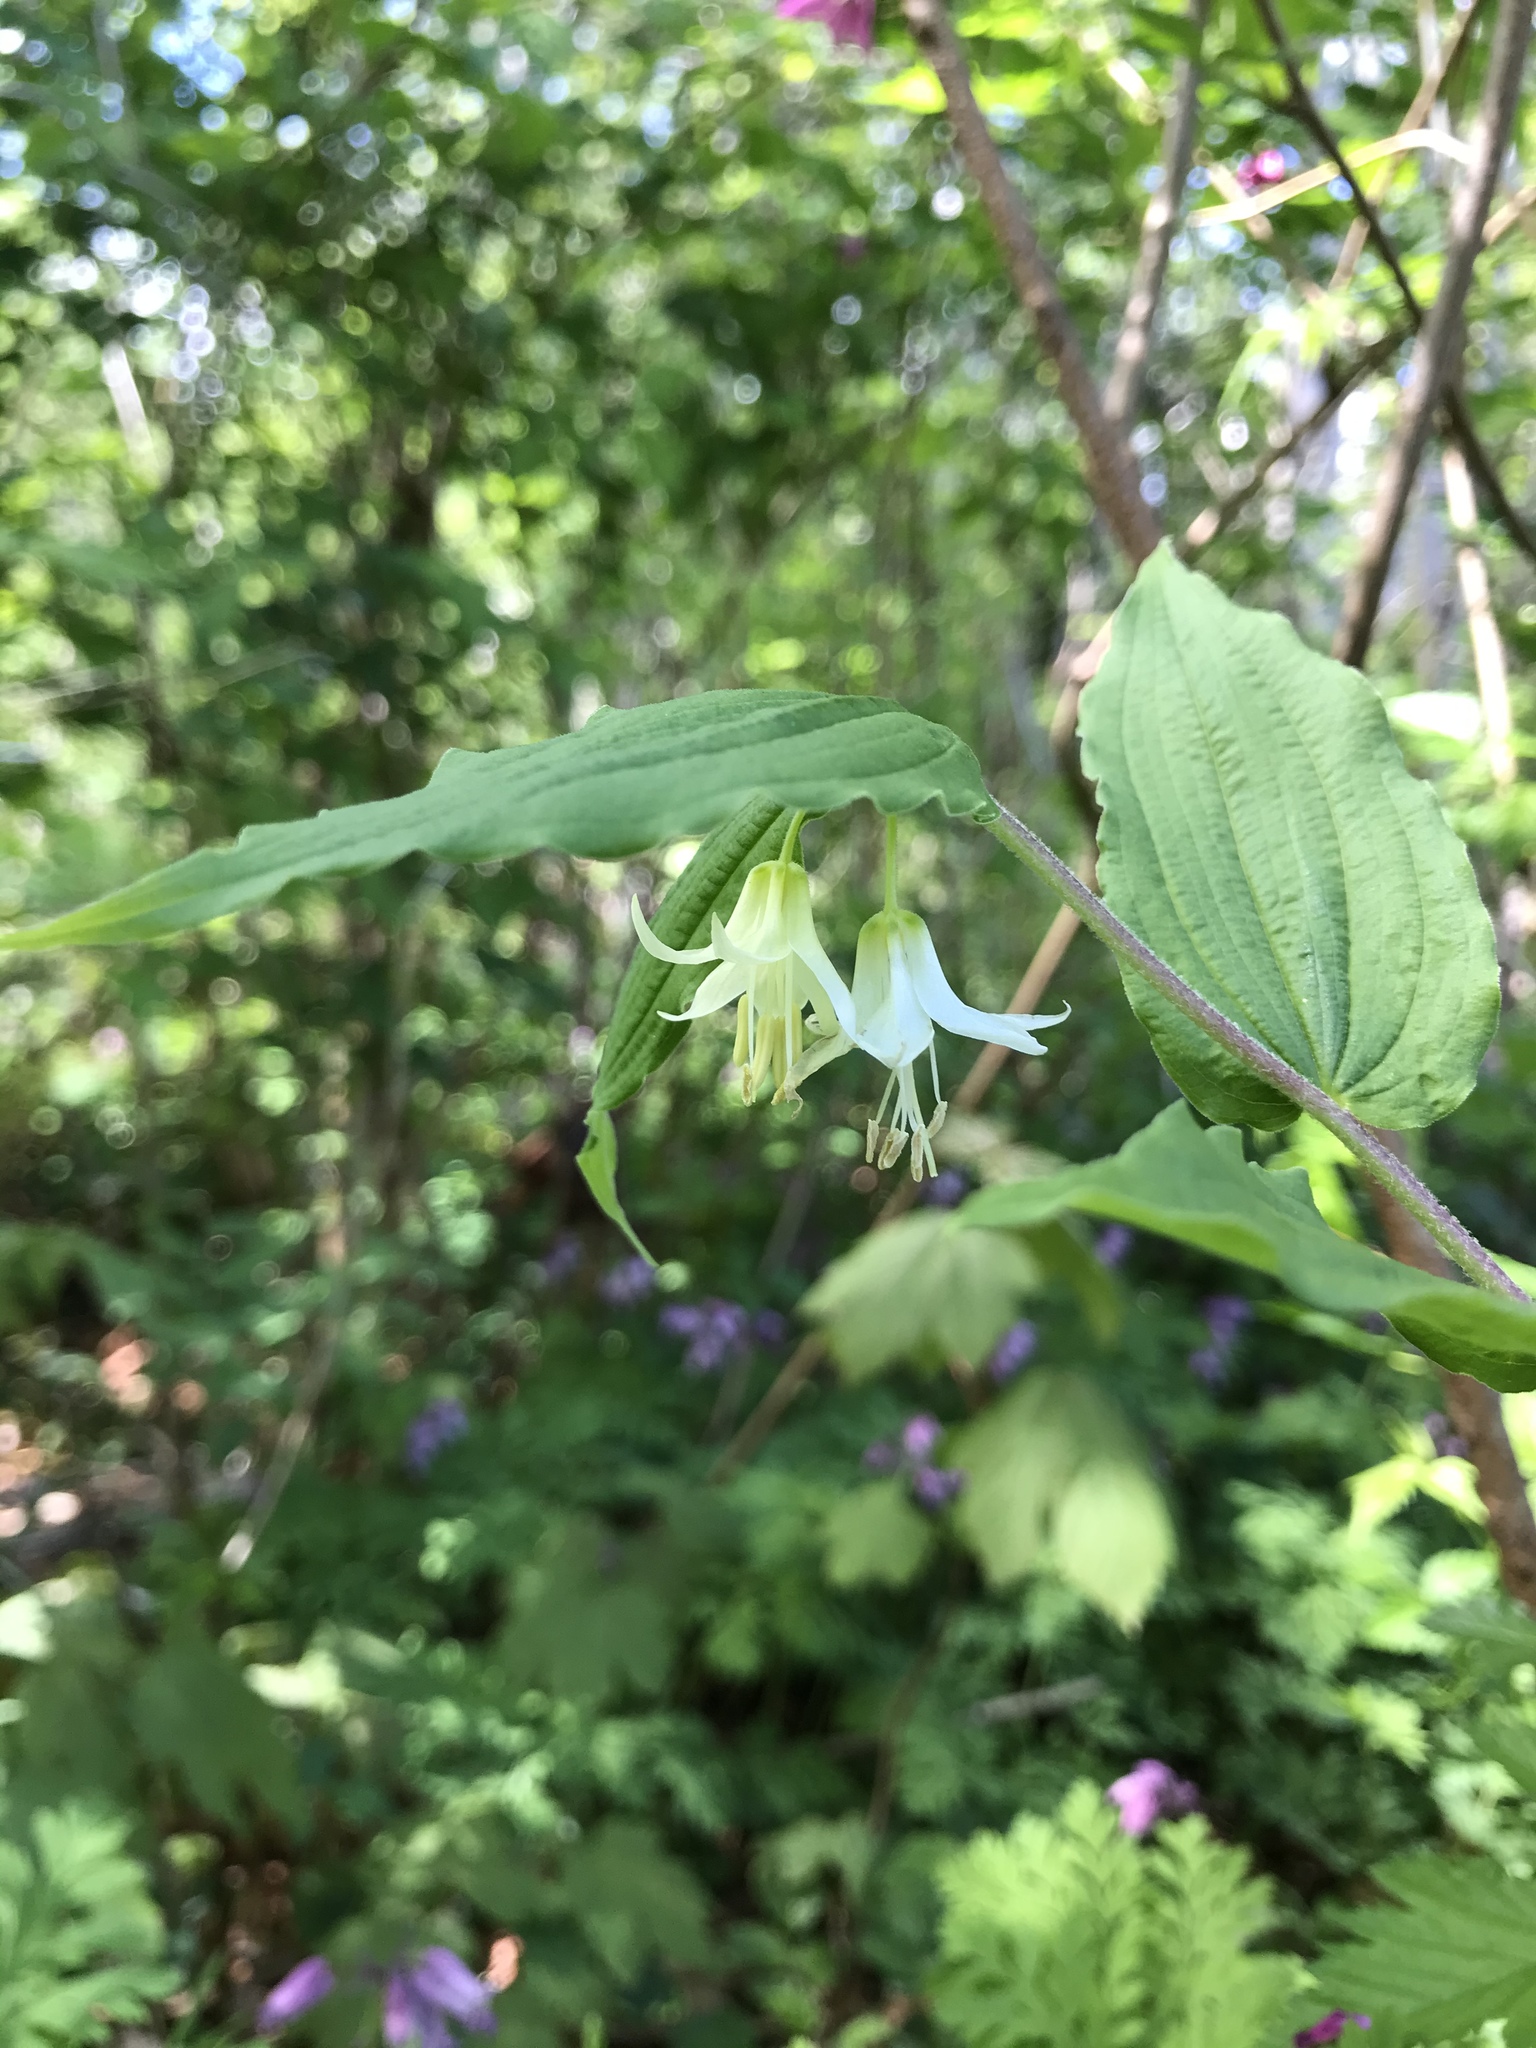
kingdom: Plantae
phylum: Tracheophyta
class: Liliopsida
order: Liliales
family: Liliaceae
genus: Prosartes
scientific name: Prosartes hookeri
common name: Fairy-bells
